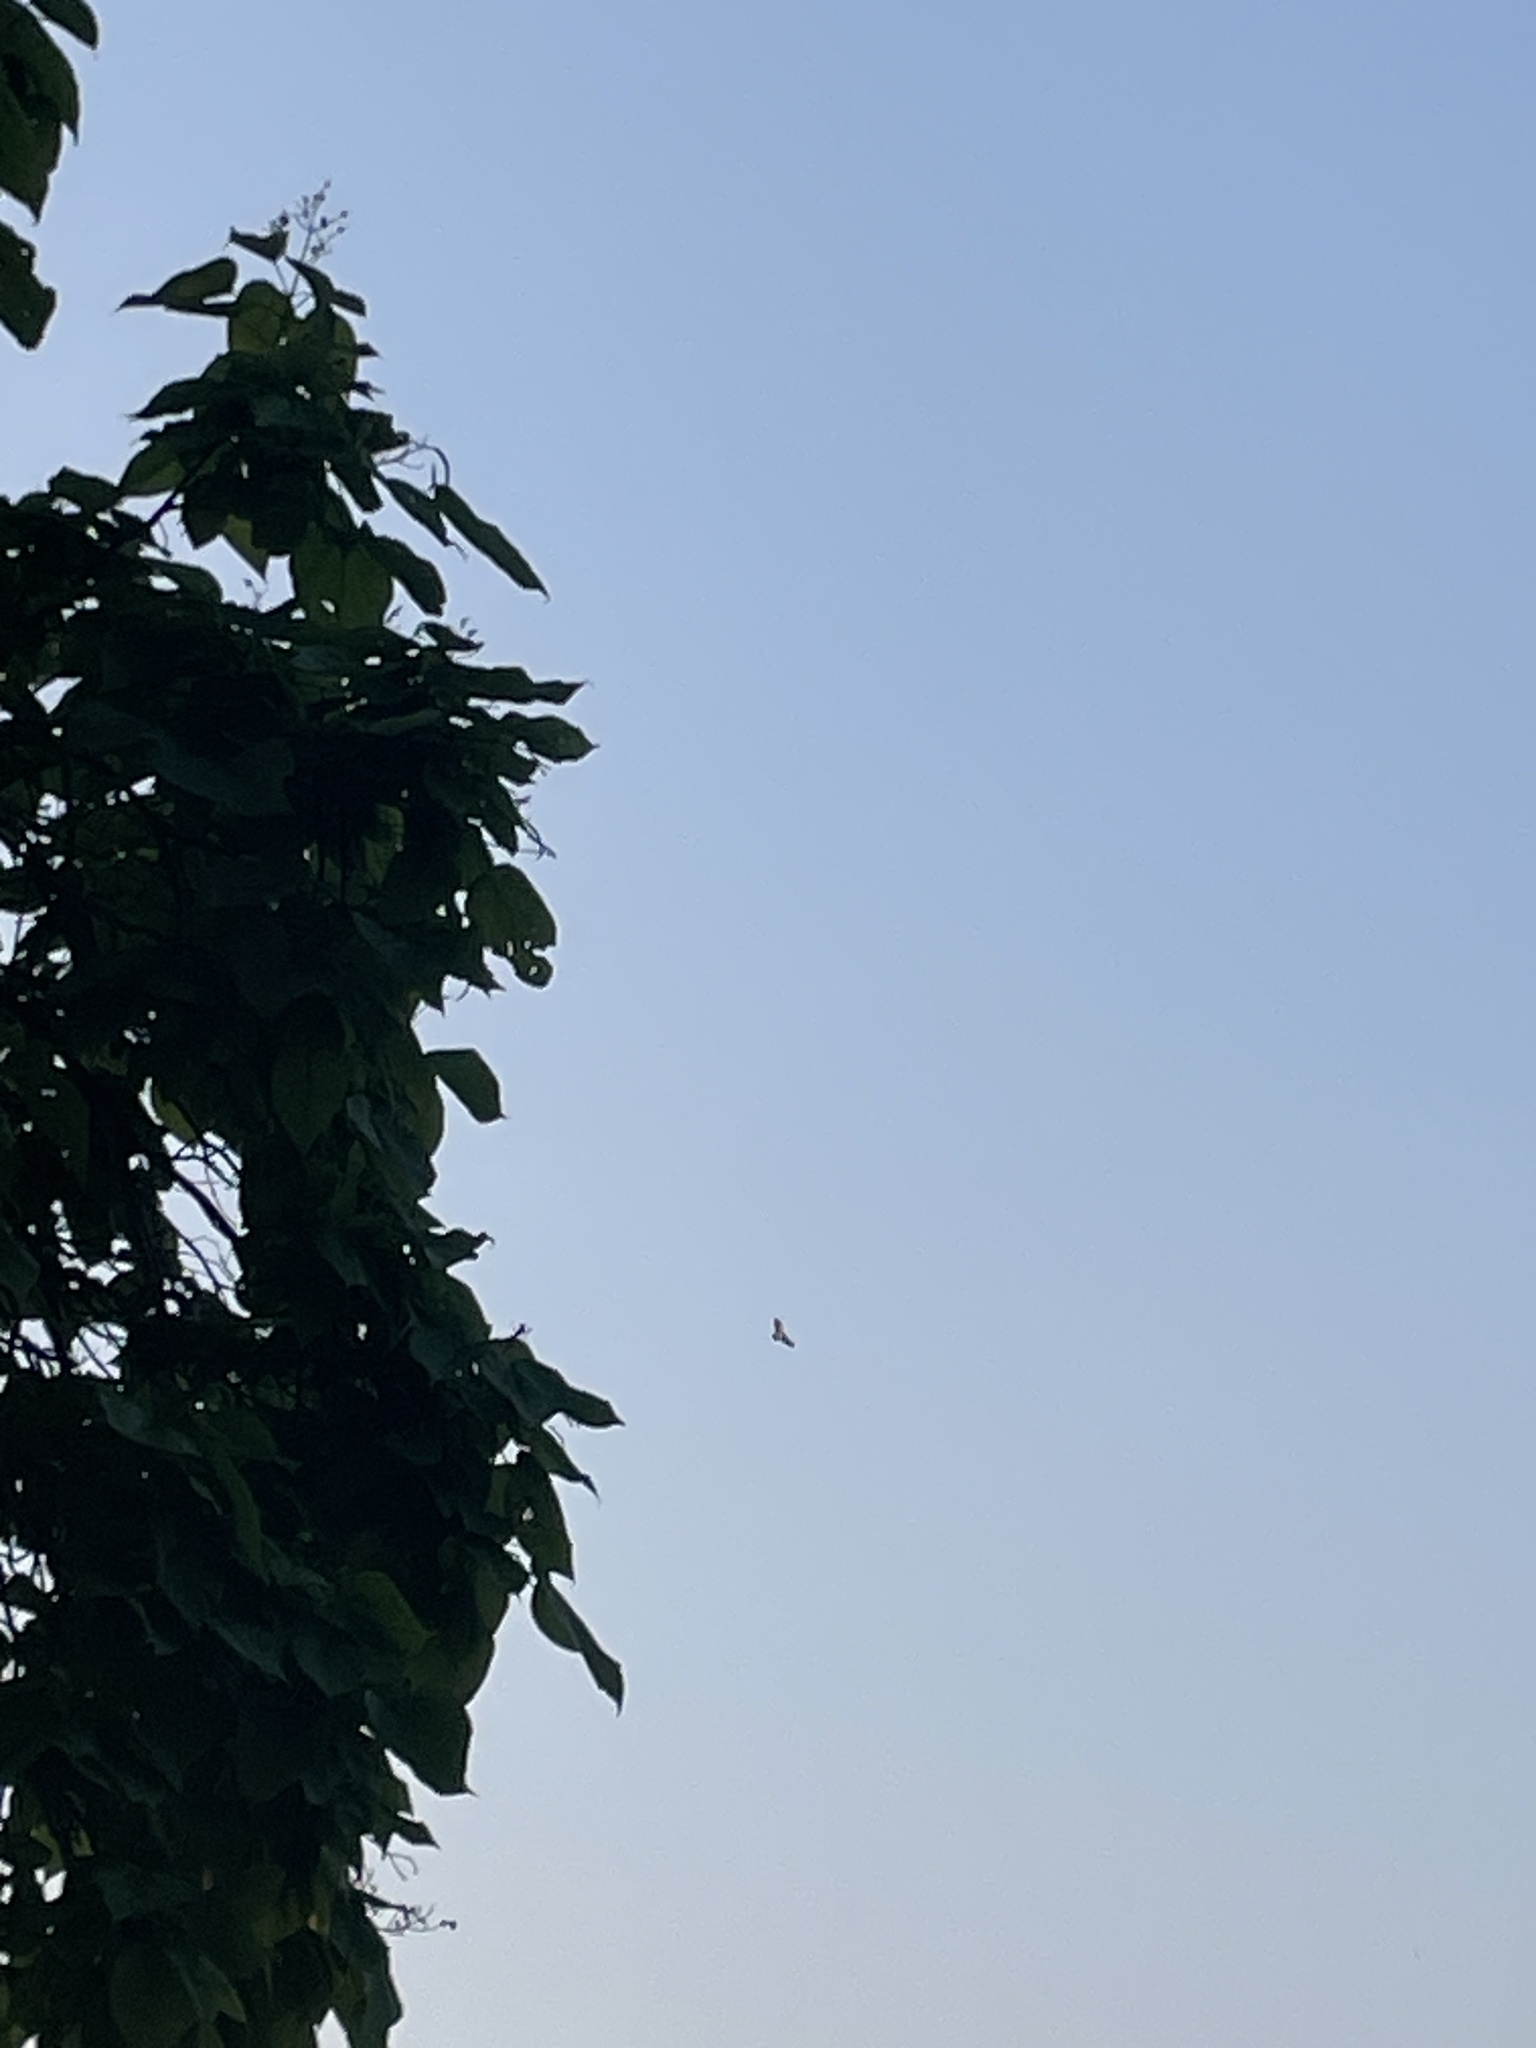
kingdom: Animalia
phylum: Chordata
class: Aves
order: Accipitriformes
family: Accipitridae
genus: Buteo
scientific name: Buteo jamaicensis
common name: Red-tailed hawk
